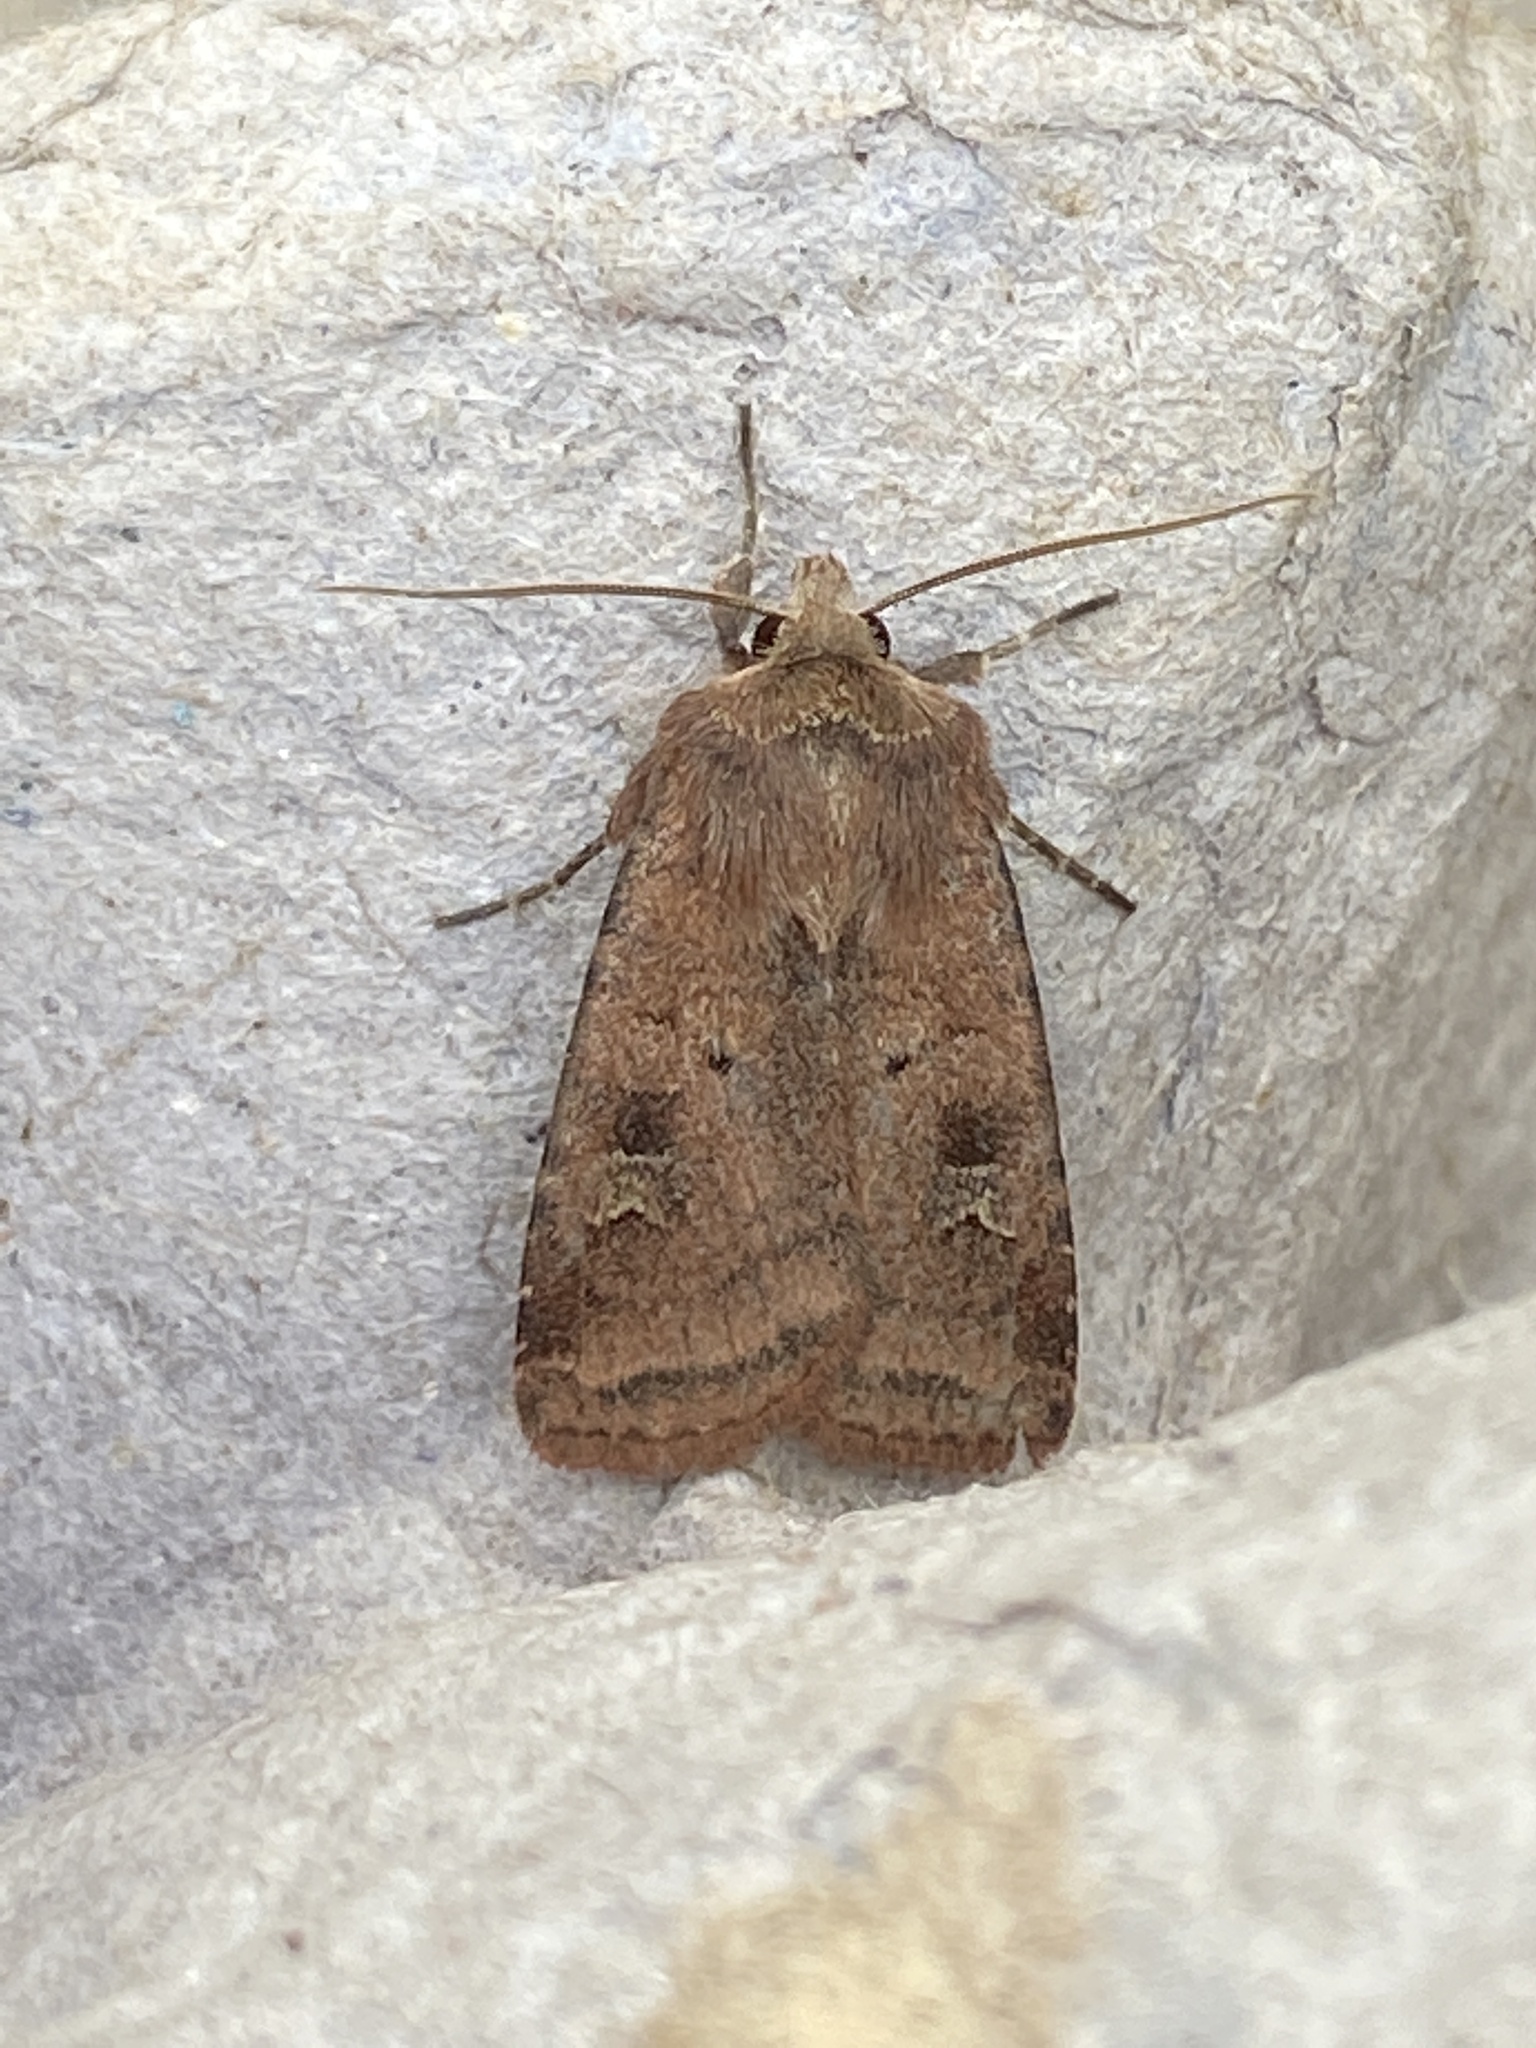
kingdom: Animalia
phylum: Arthropoda
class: Insecta
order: Lepidoptera
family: Noctuidae
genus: Diarsia
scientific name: Diarsia rubi
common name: Small square-spot
